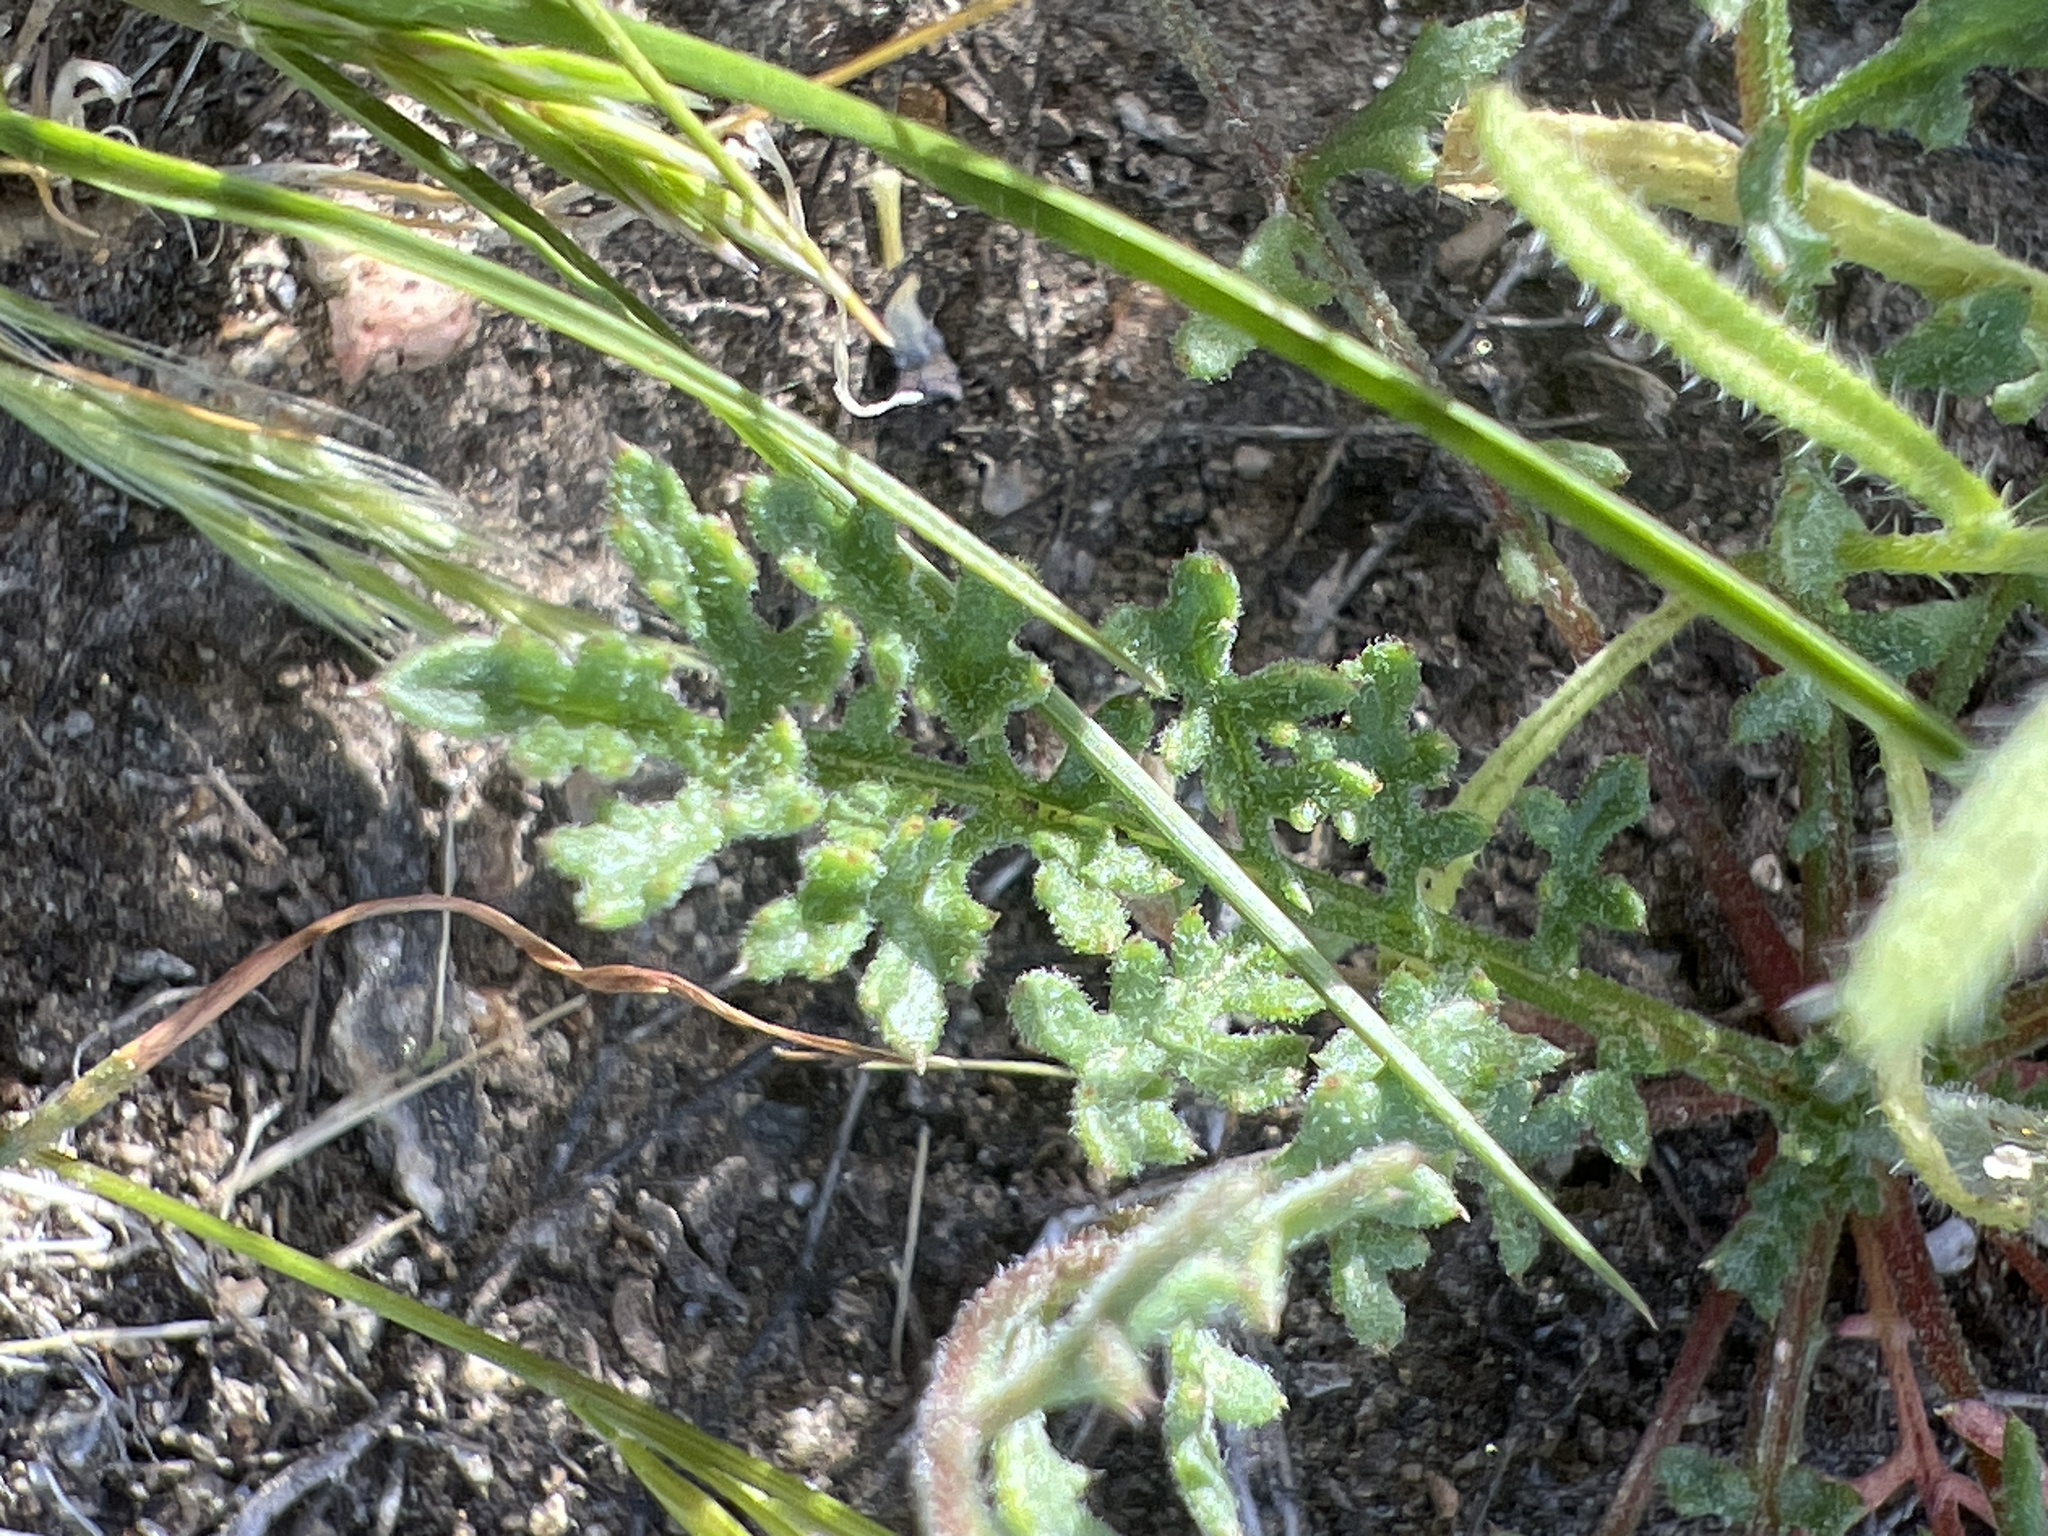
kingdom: Plantae
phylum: Tracheophyta
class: Magnoliopsida
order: Ericales
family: Polemoniaceae
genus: Gilia
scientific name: Gilia stellata
